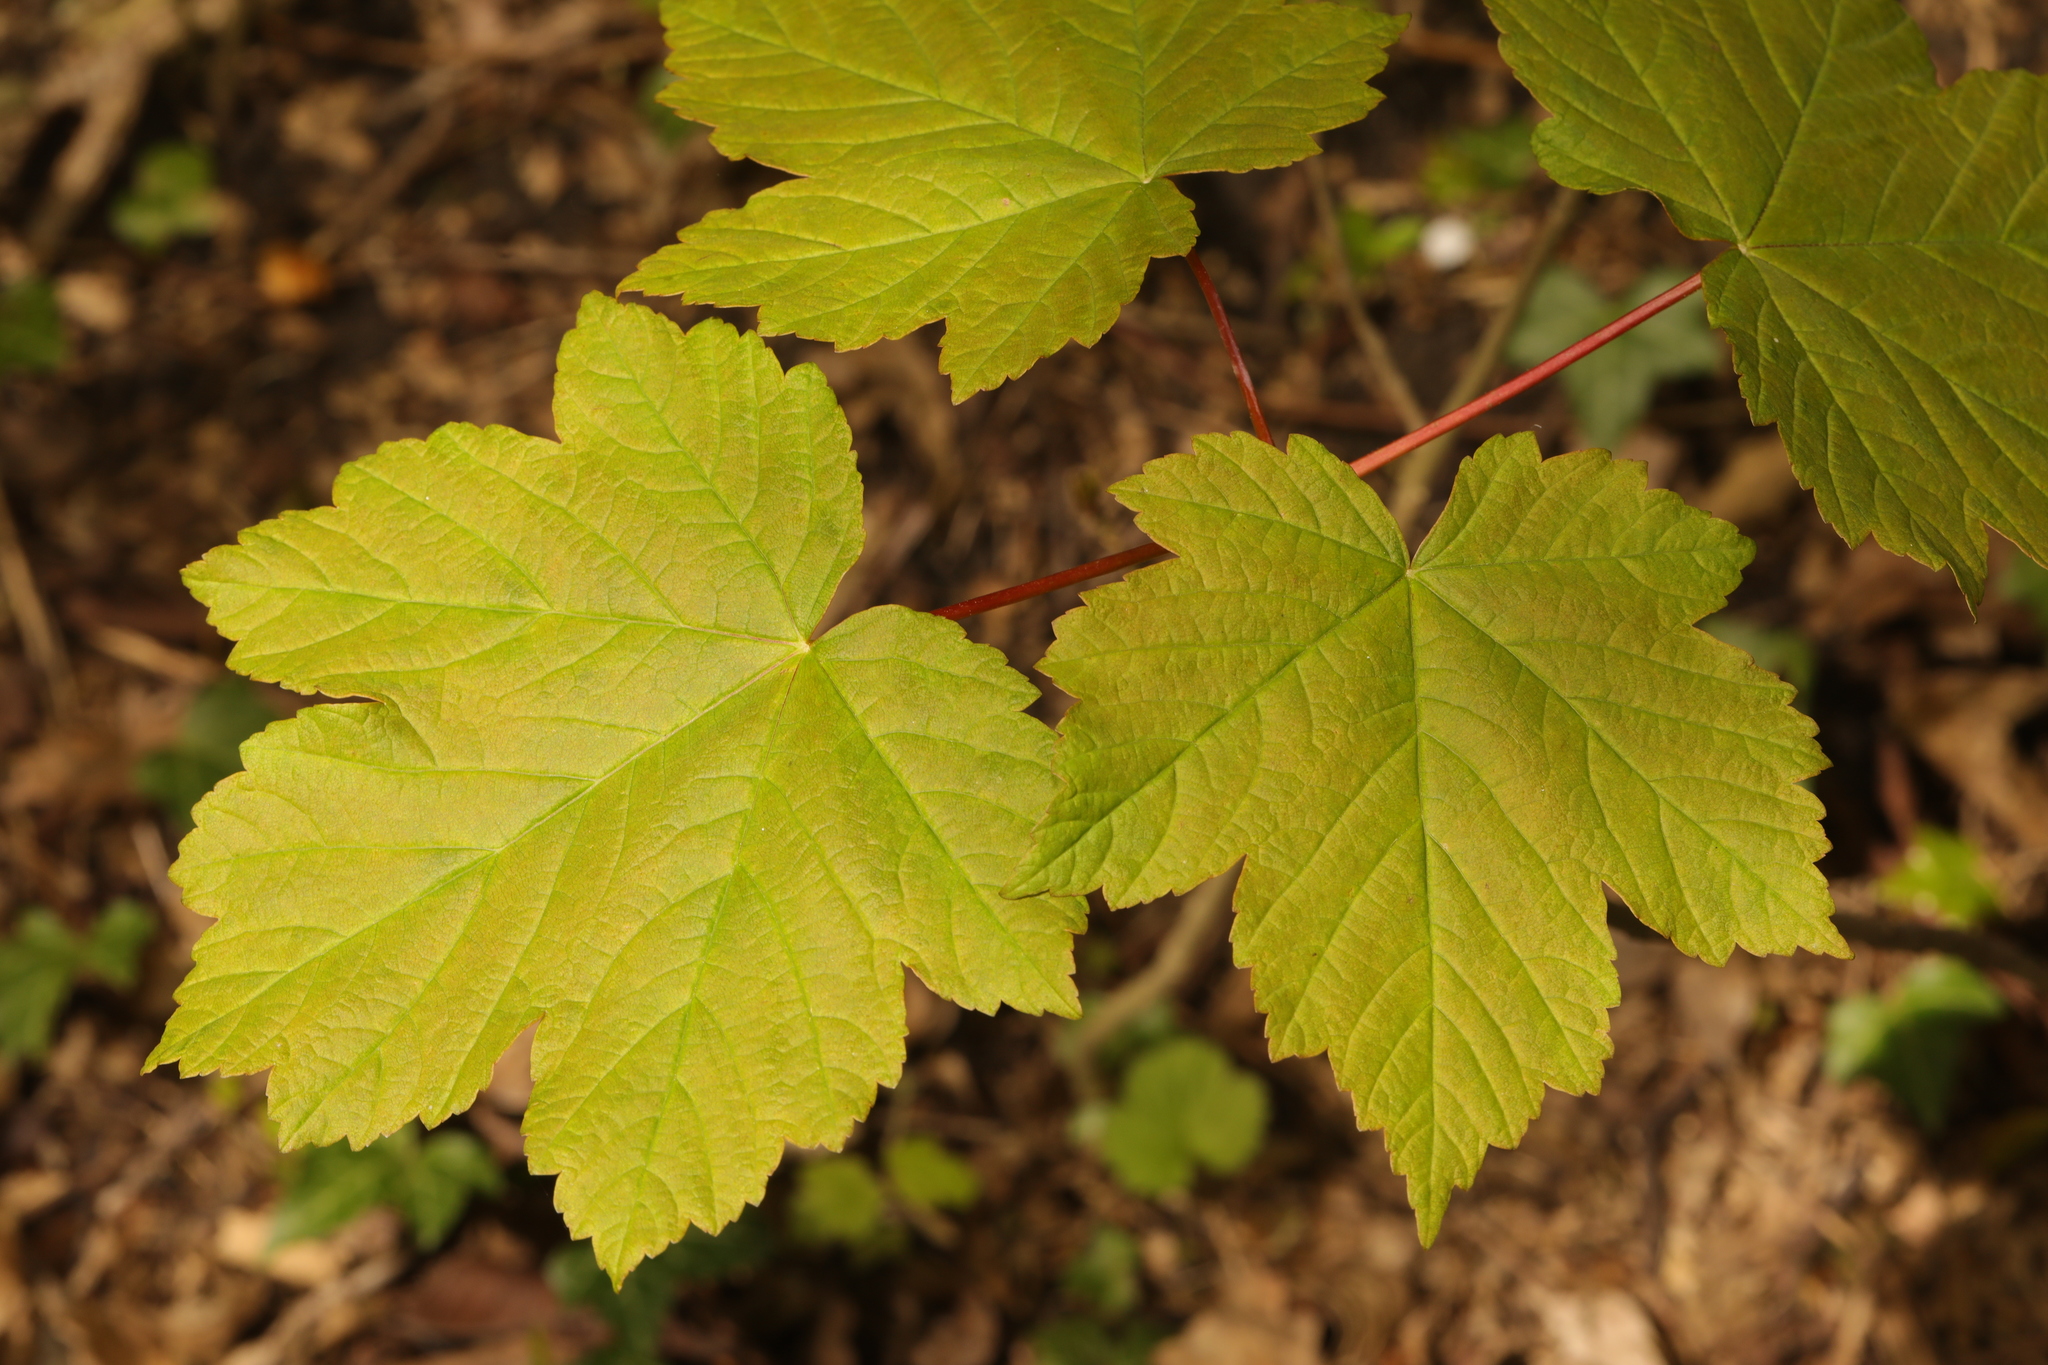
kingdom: Plantae
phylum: Tracheophyta
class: Magnoliopsida
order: Sapindales
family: Sapindaceae
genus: Acer
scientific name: Acer pseudoplatanus
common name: Sycamore
